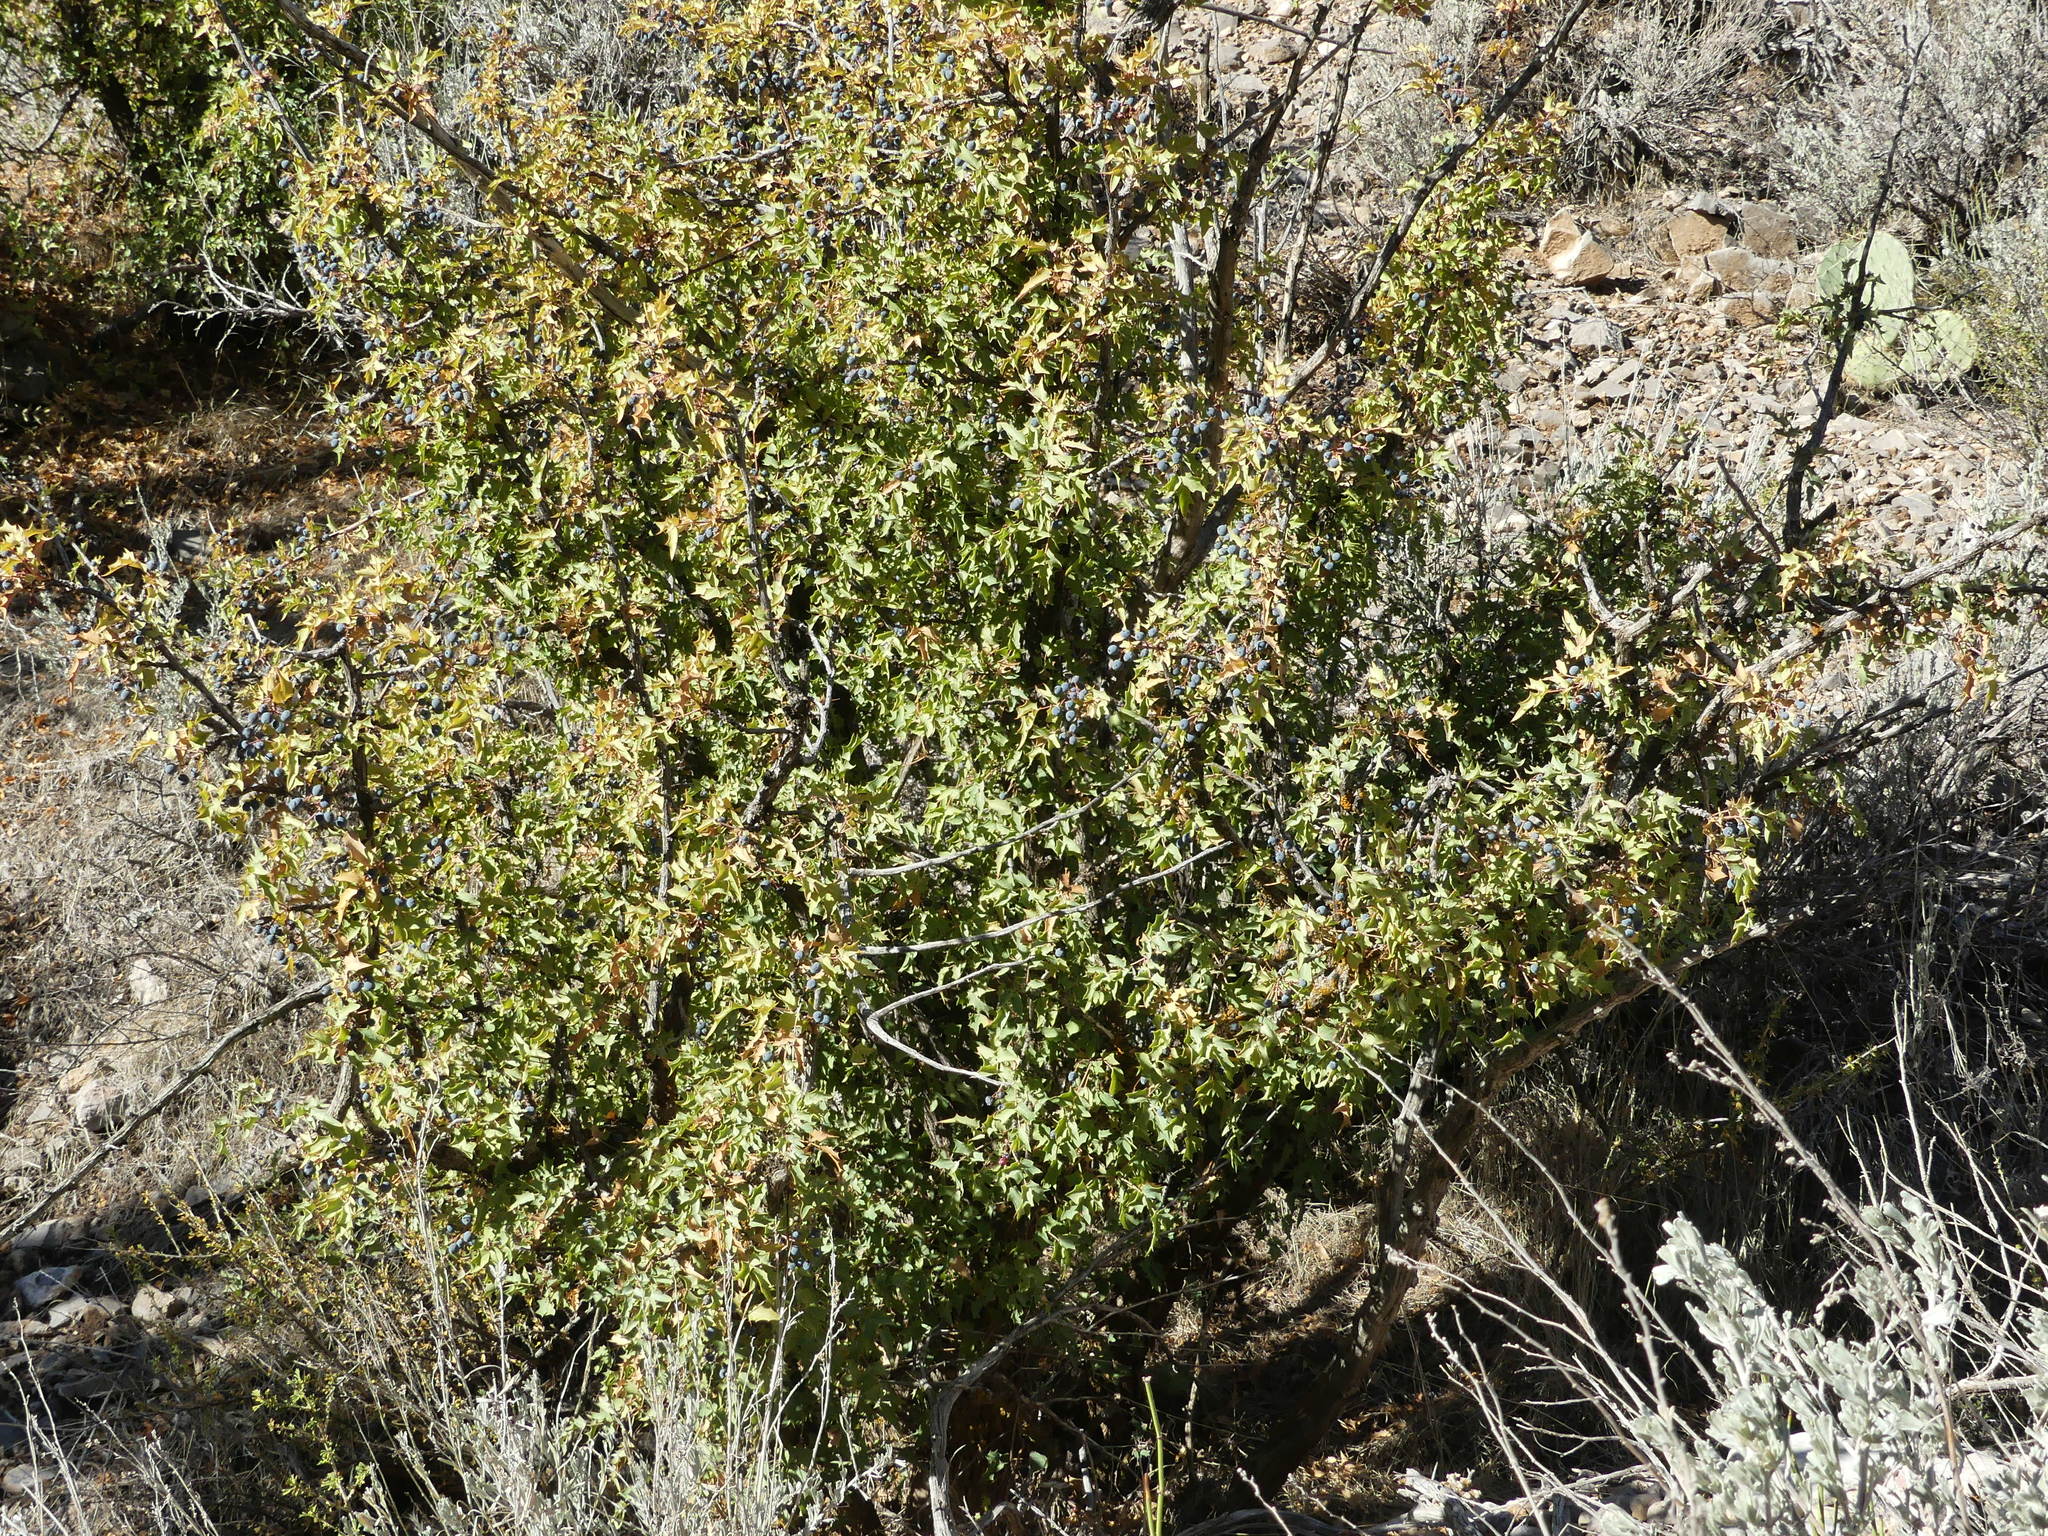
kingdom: Plantae
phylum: Tracheophyta
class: Magnoliopsida
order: Ranunculales
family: Berberidaceae
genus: Alloberberis
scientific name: Alloberberis fremontii
